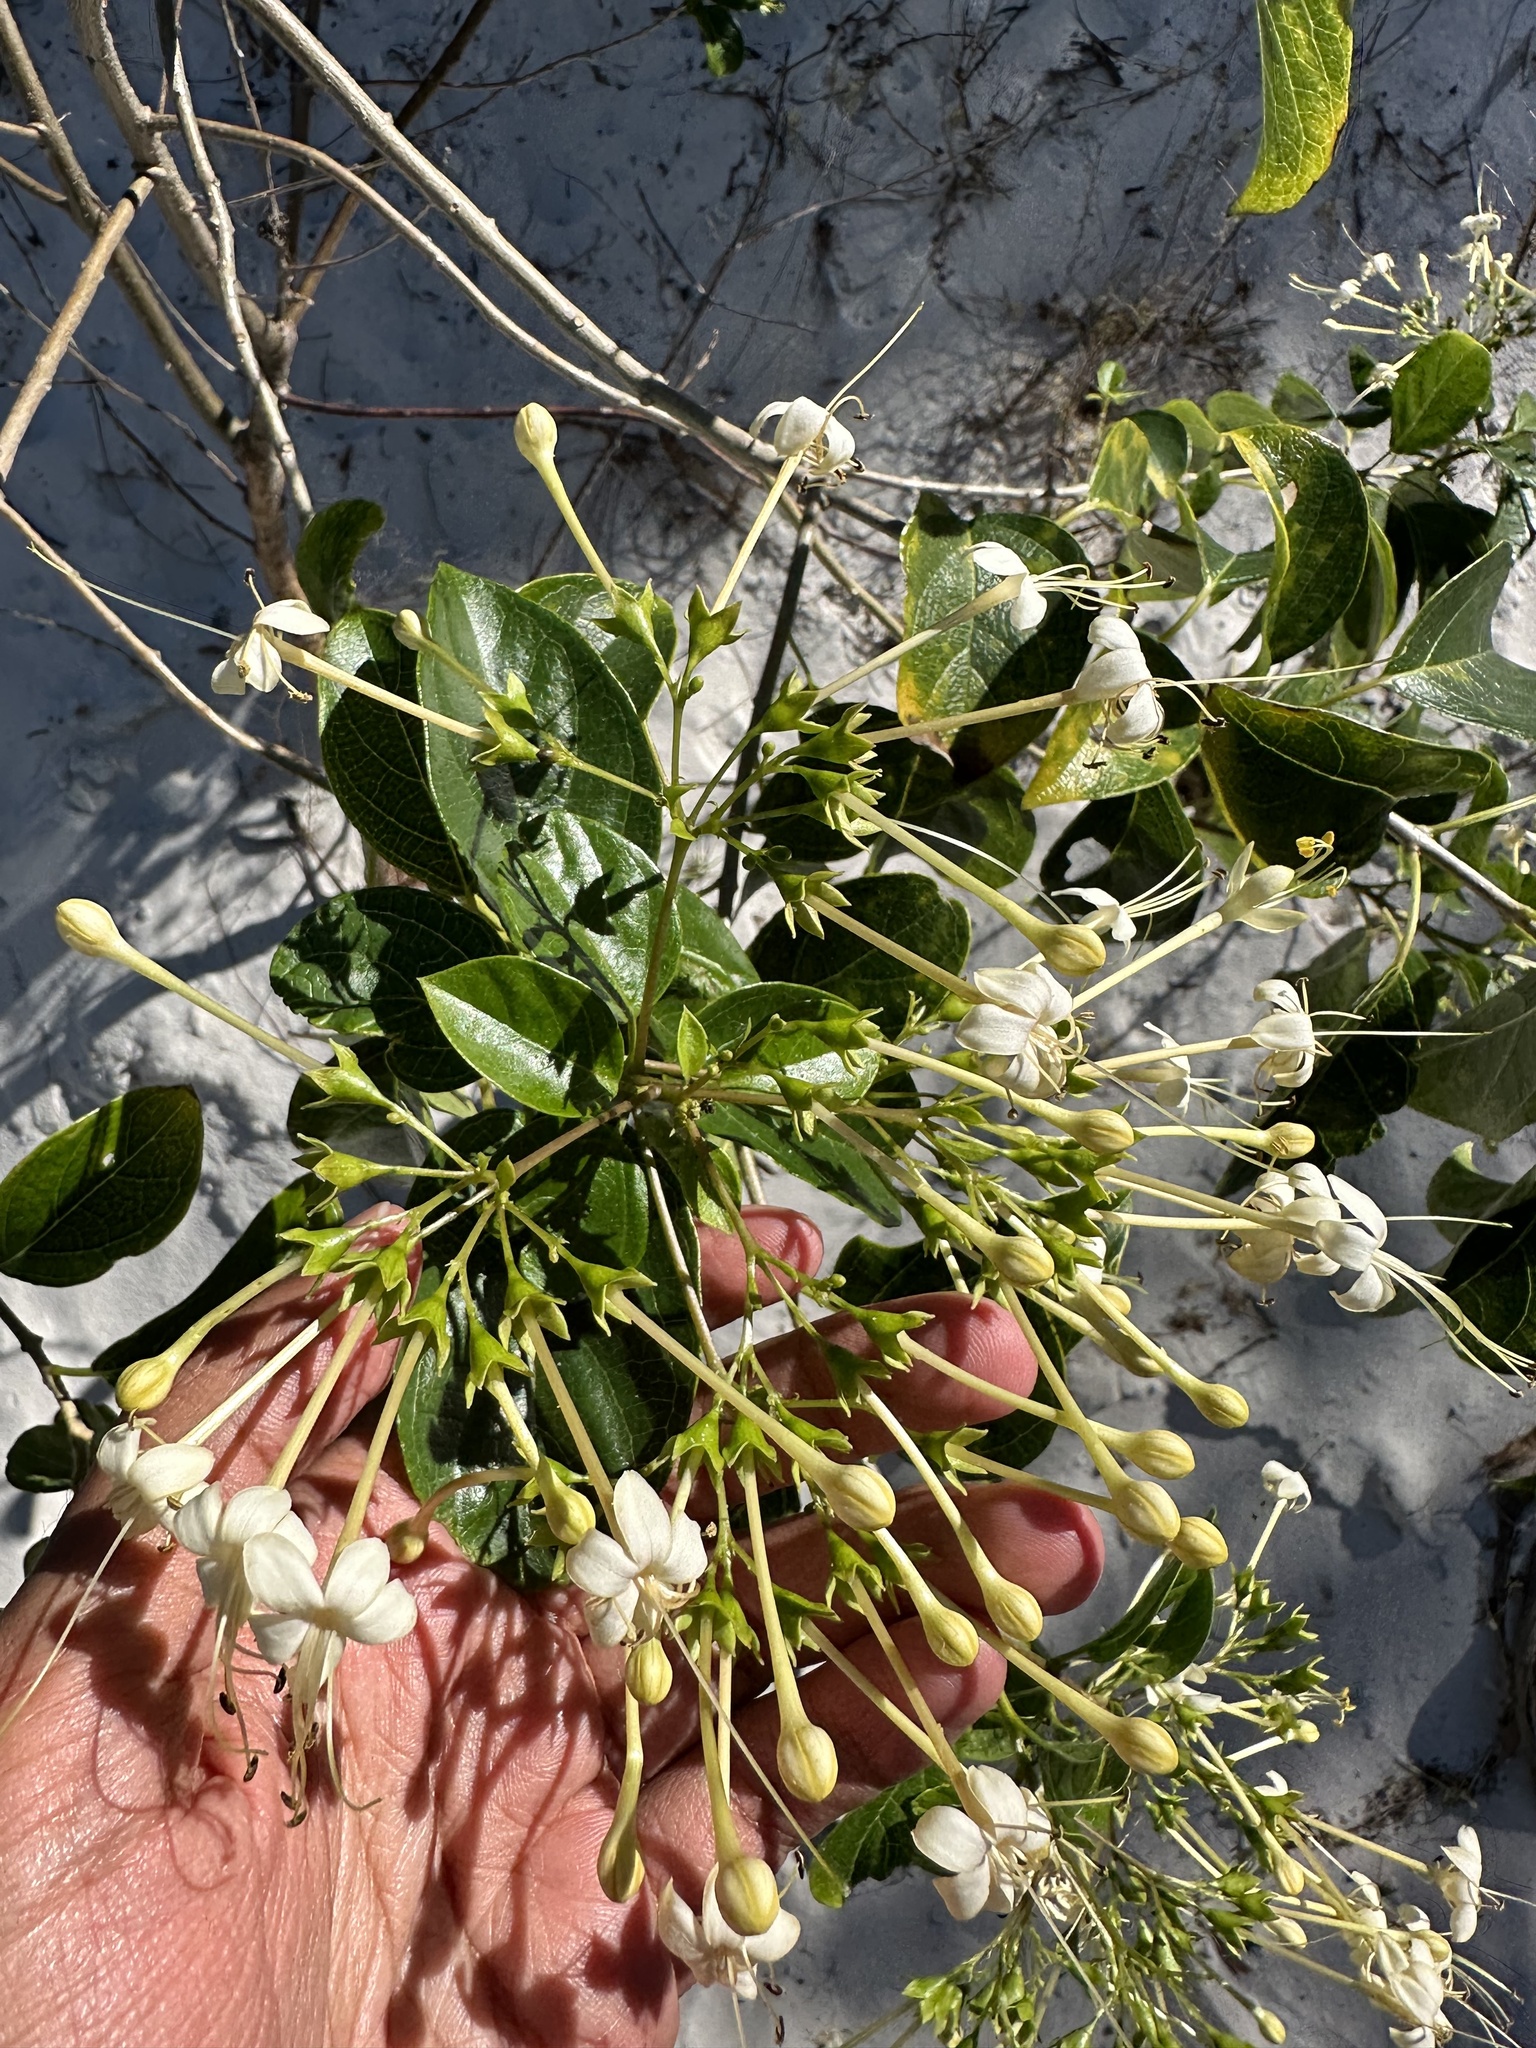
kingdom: Plantae
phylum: Tracheophyta
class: Magnoliopsida
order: Lamiales
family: Lamiaceae
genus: Clerodendrum
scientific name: Clerodendrum floribundum
